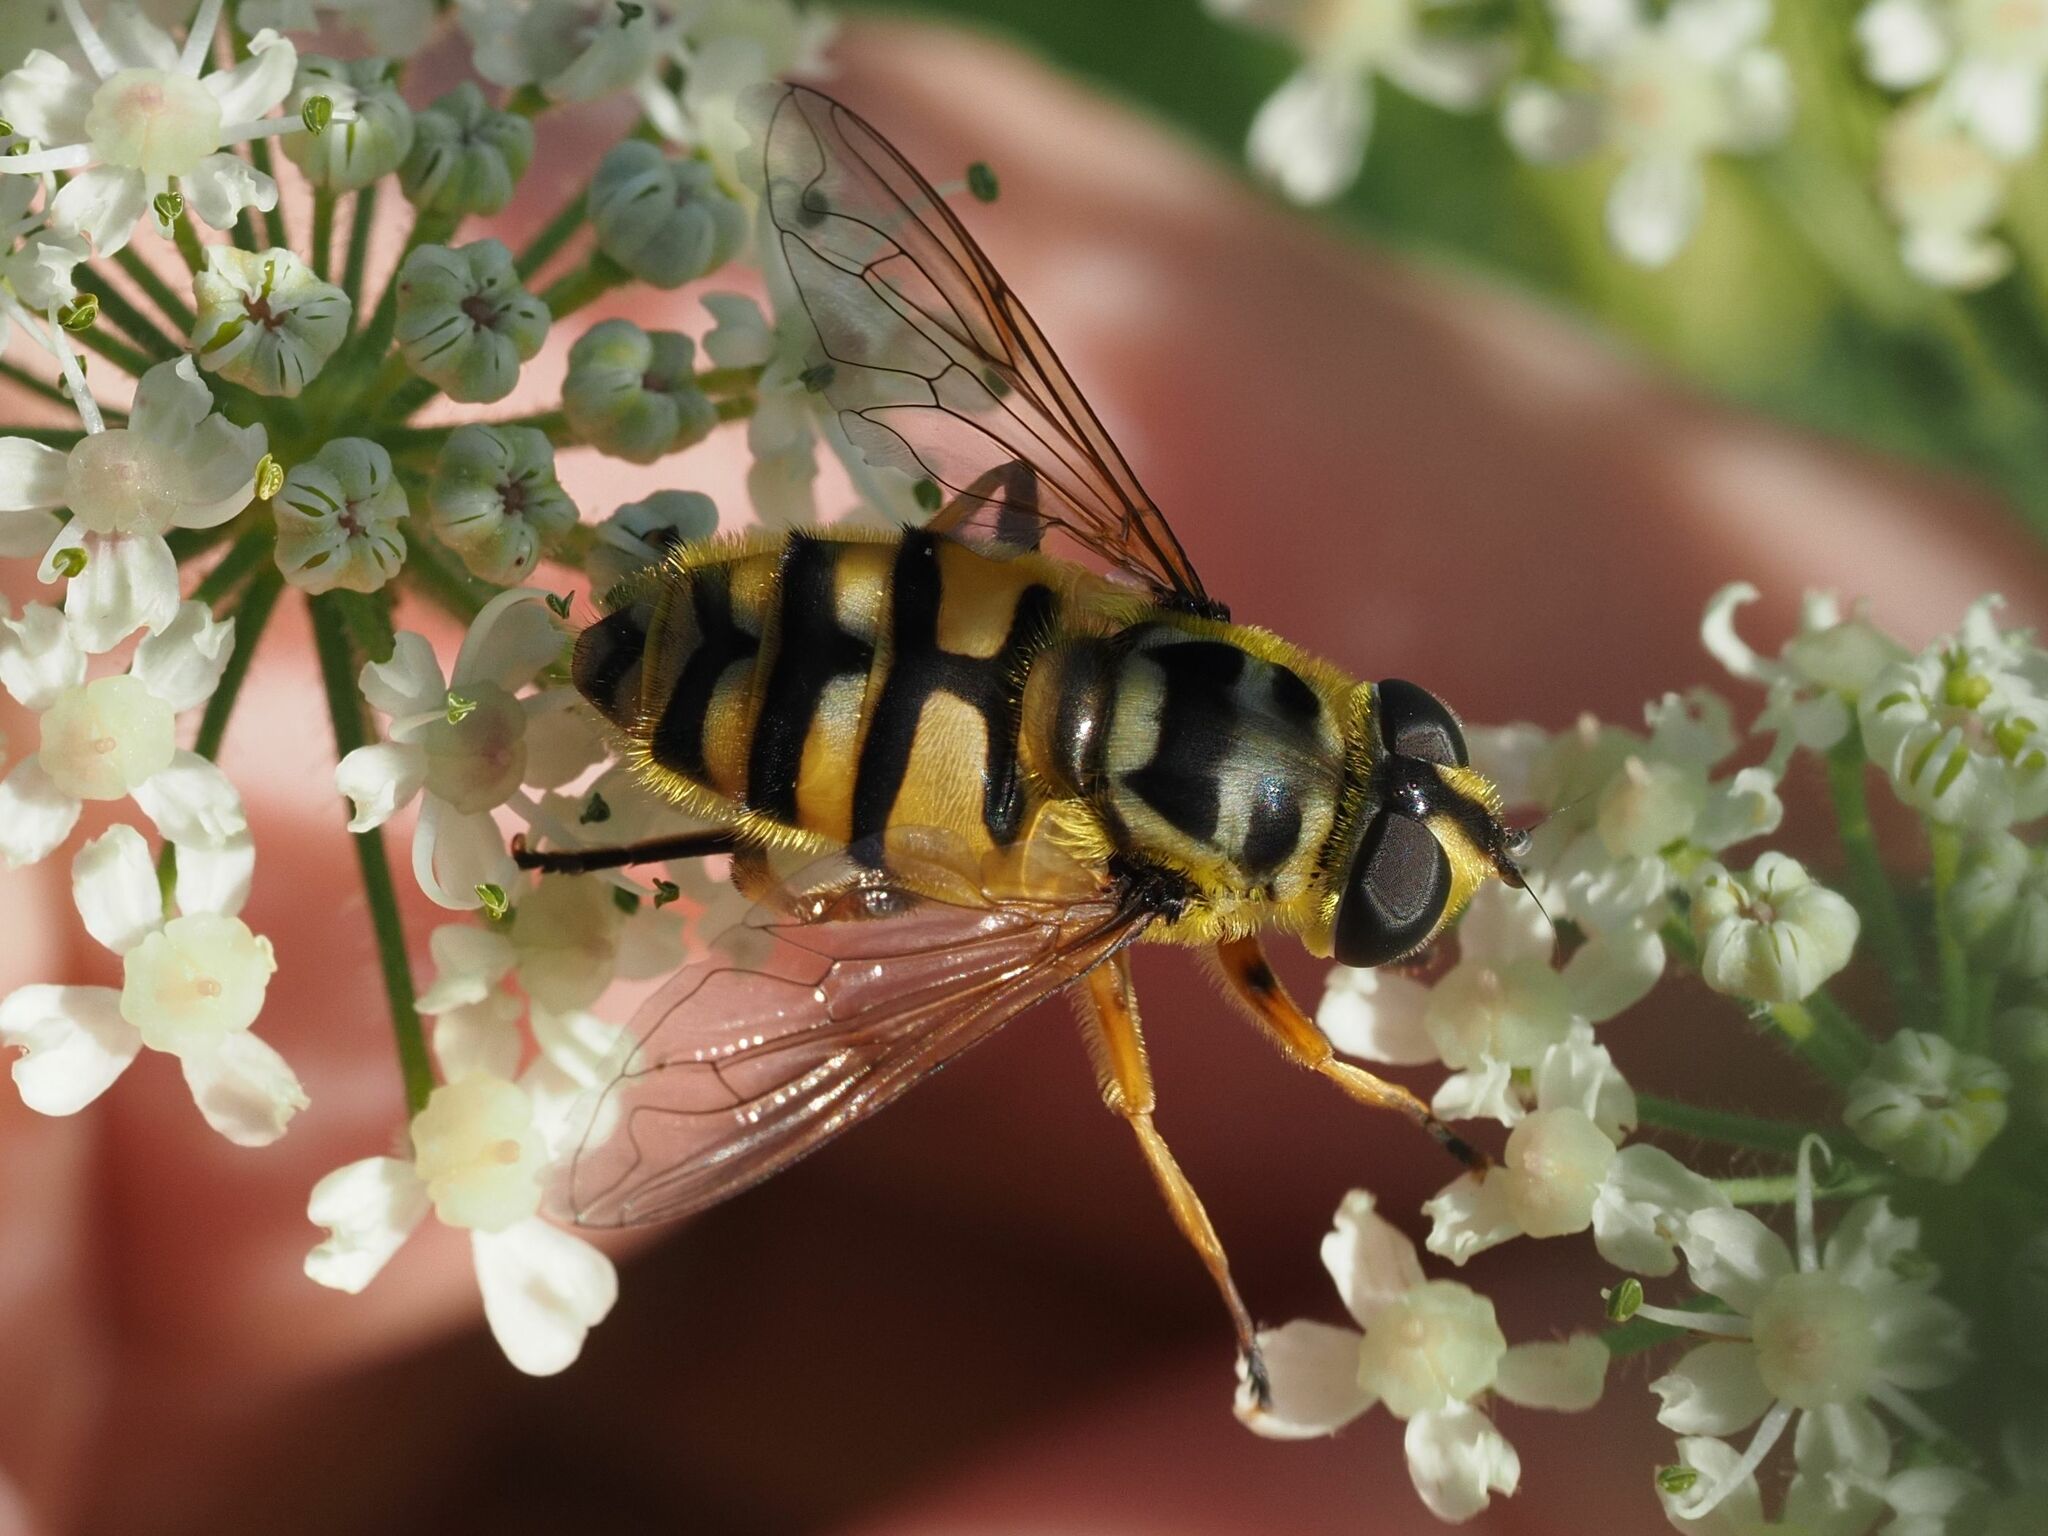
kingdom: Animalia
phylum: Arthropoda
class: Insecta
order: Diptera
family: Syrphidae
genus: Myathropa
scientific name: Myathropa florea
